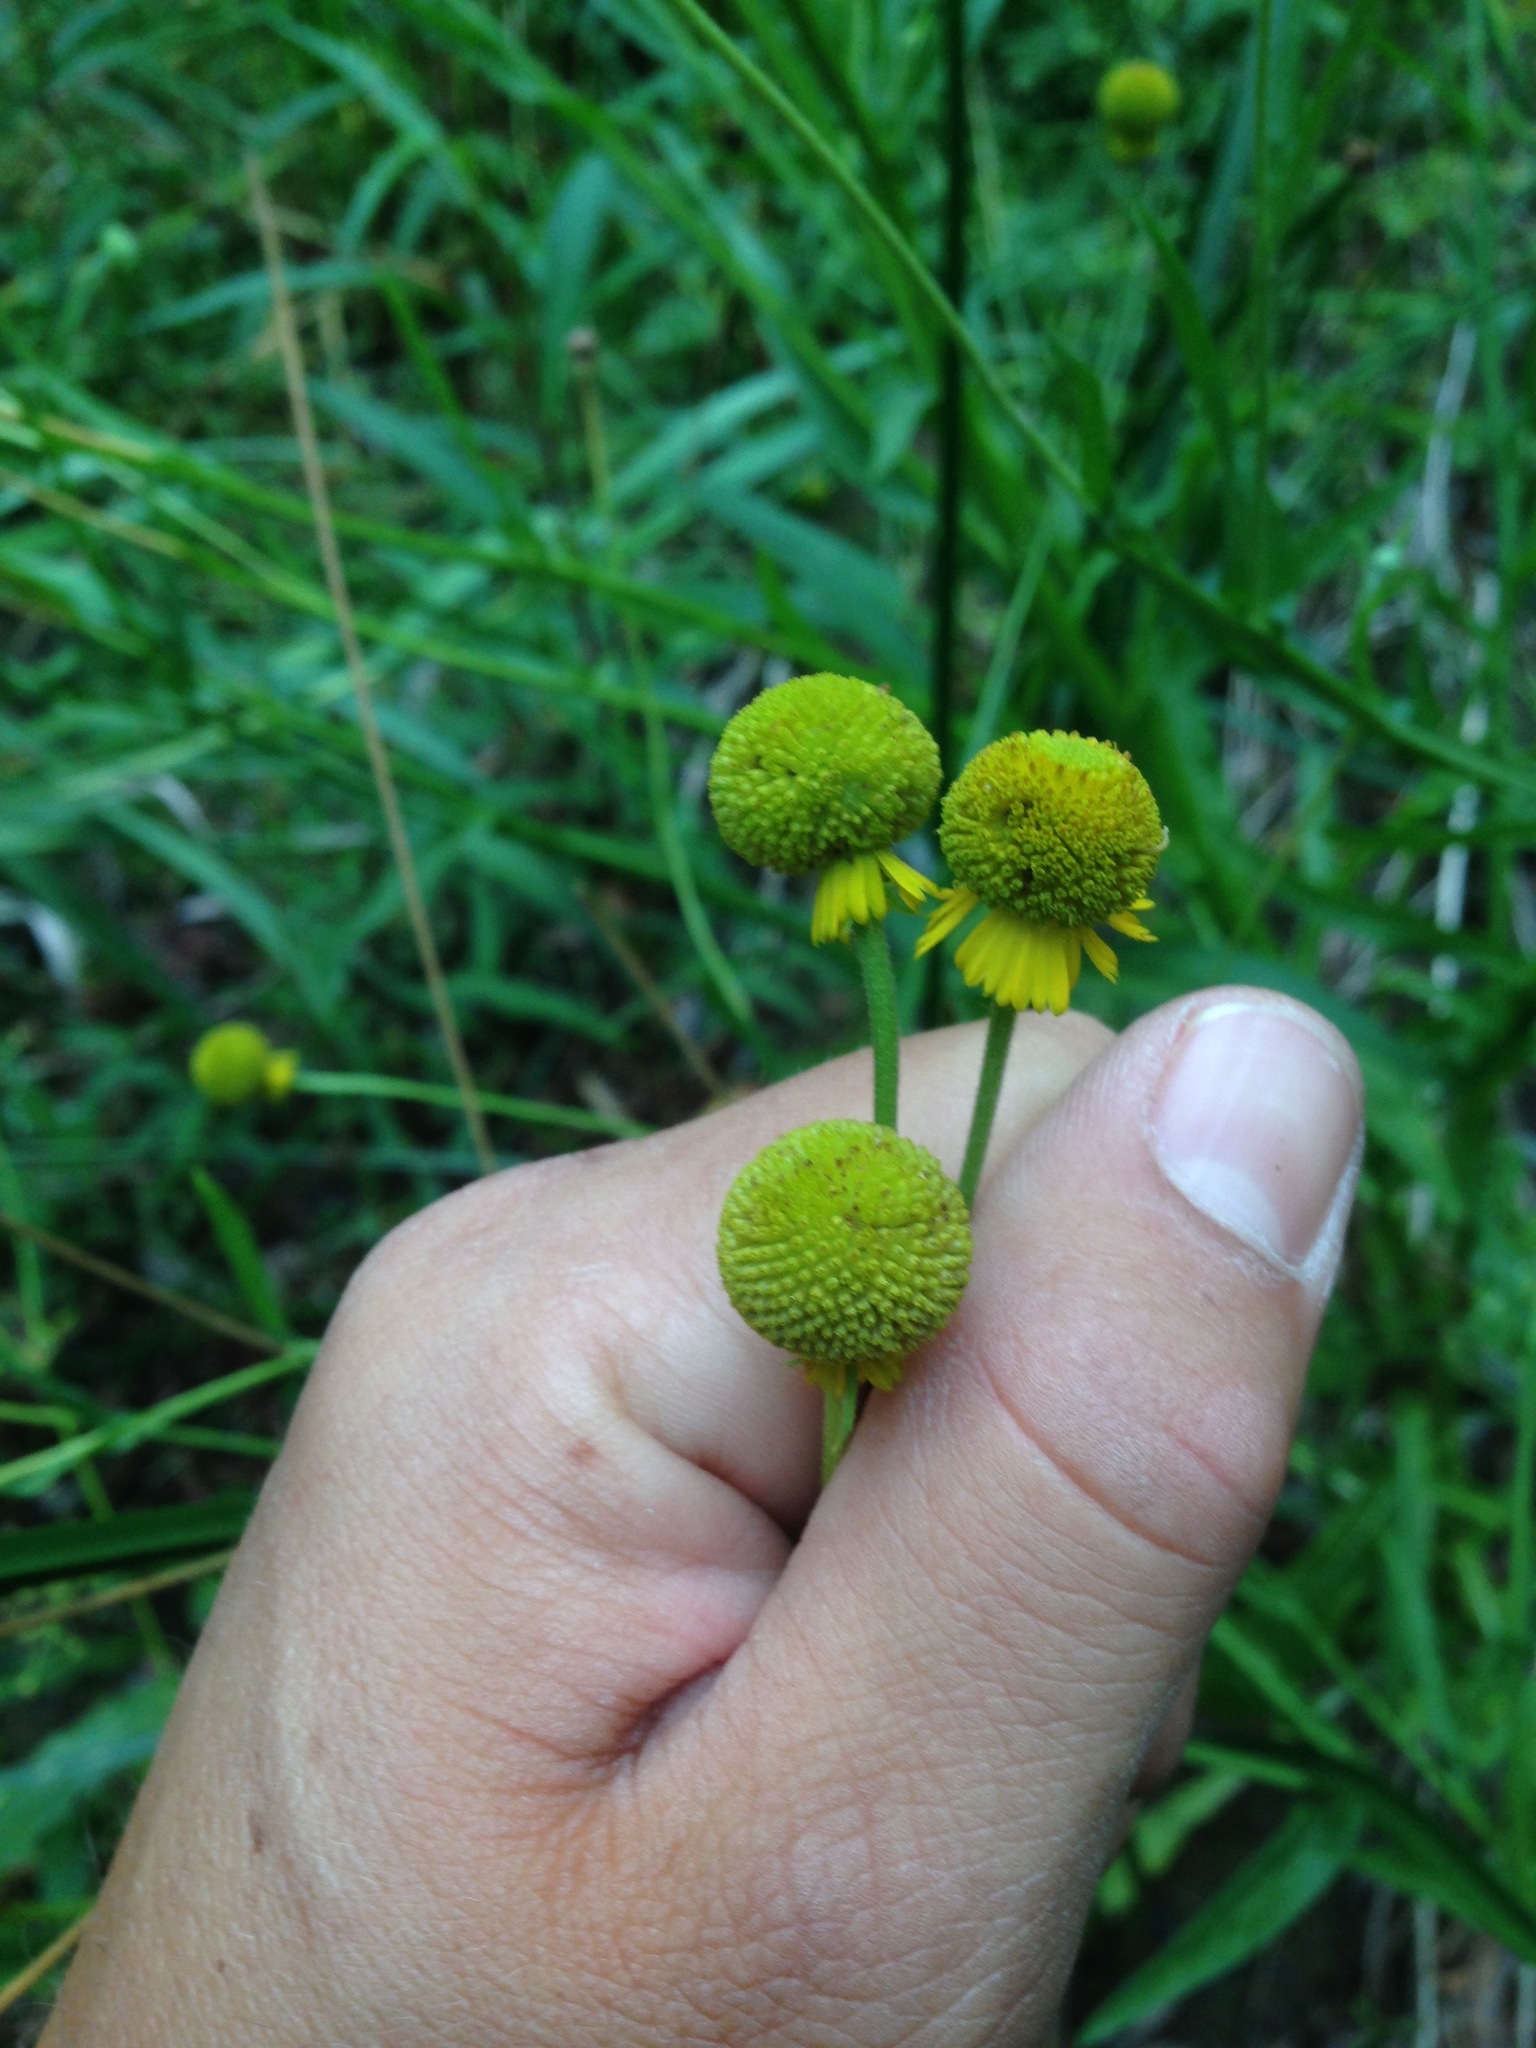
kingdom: Plantae
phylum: Tracheophyta
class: Magnoliopsida
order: Asterales
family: Asteraceae
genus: Helenium
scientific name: Helenium puberulum
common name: Sneezewort
